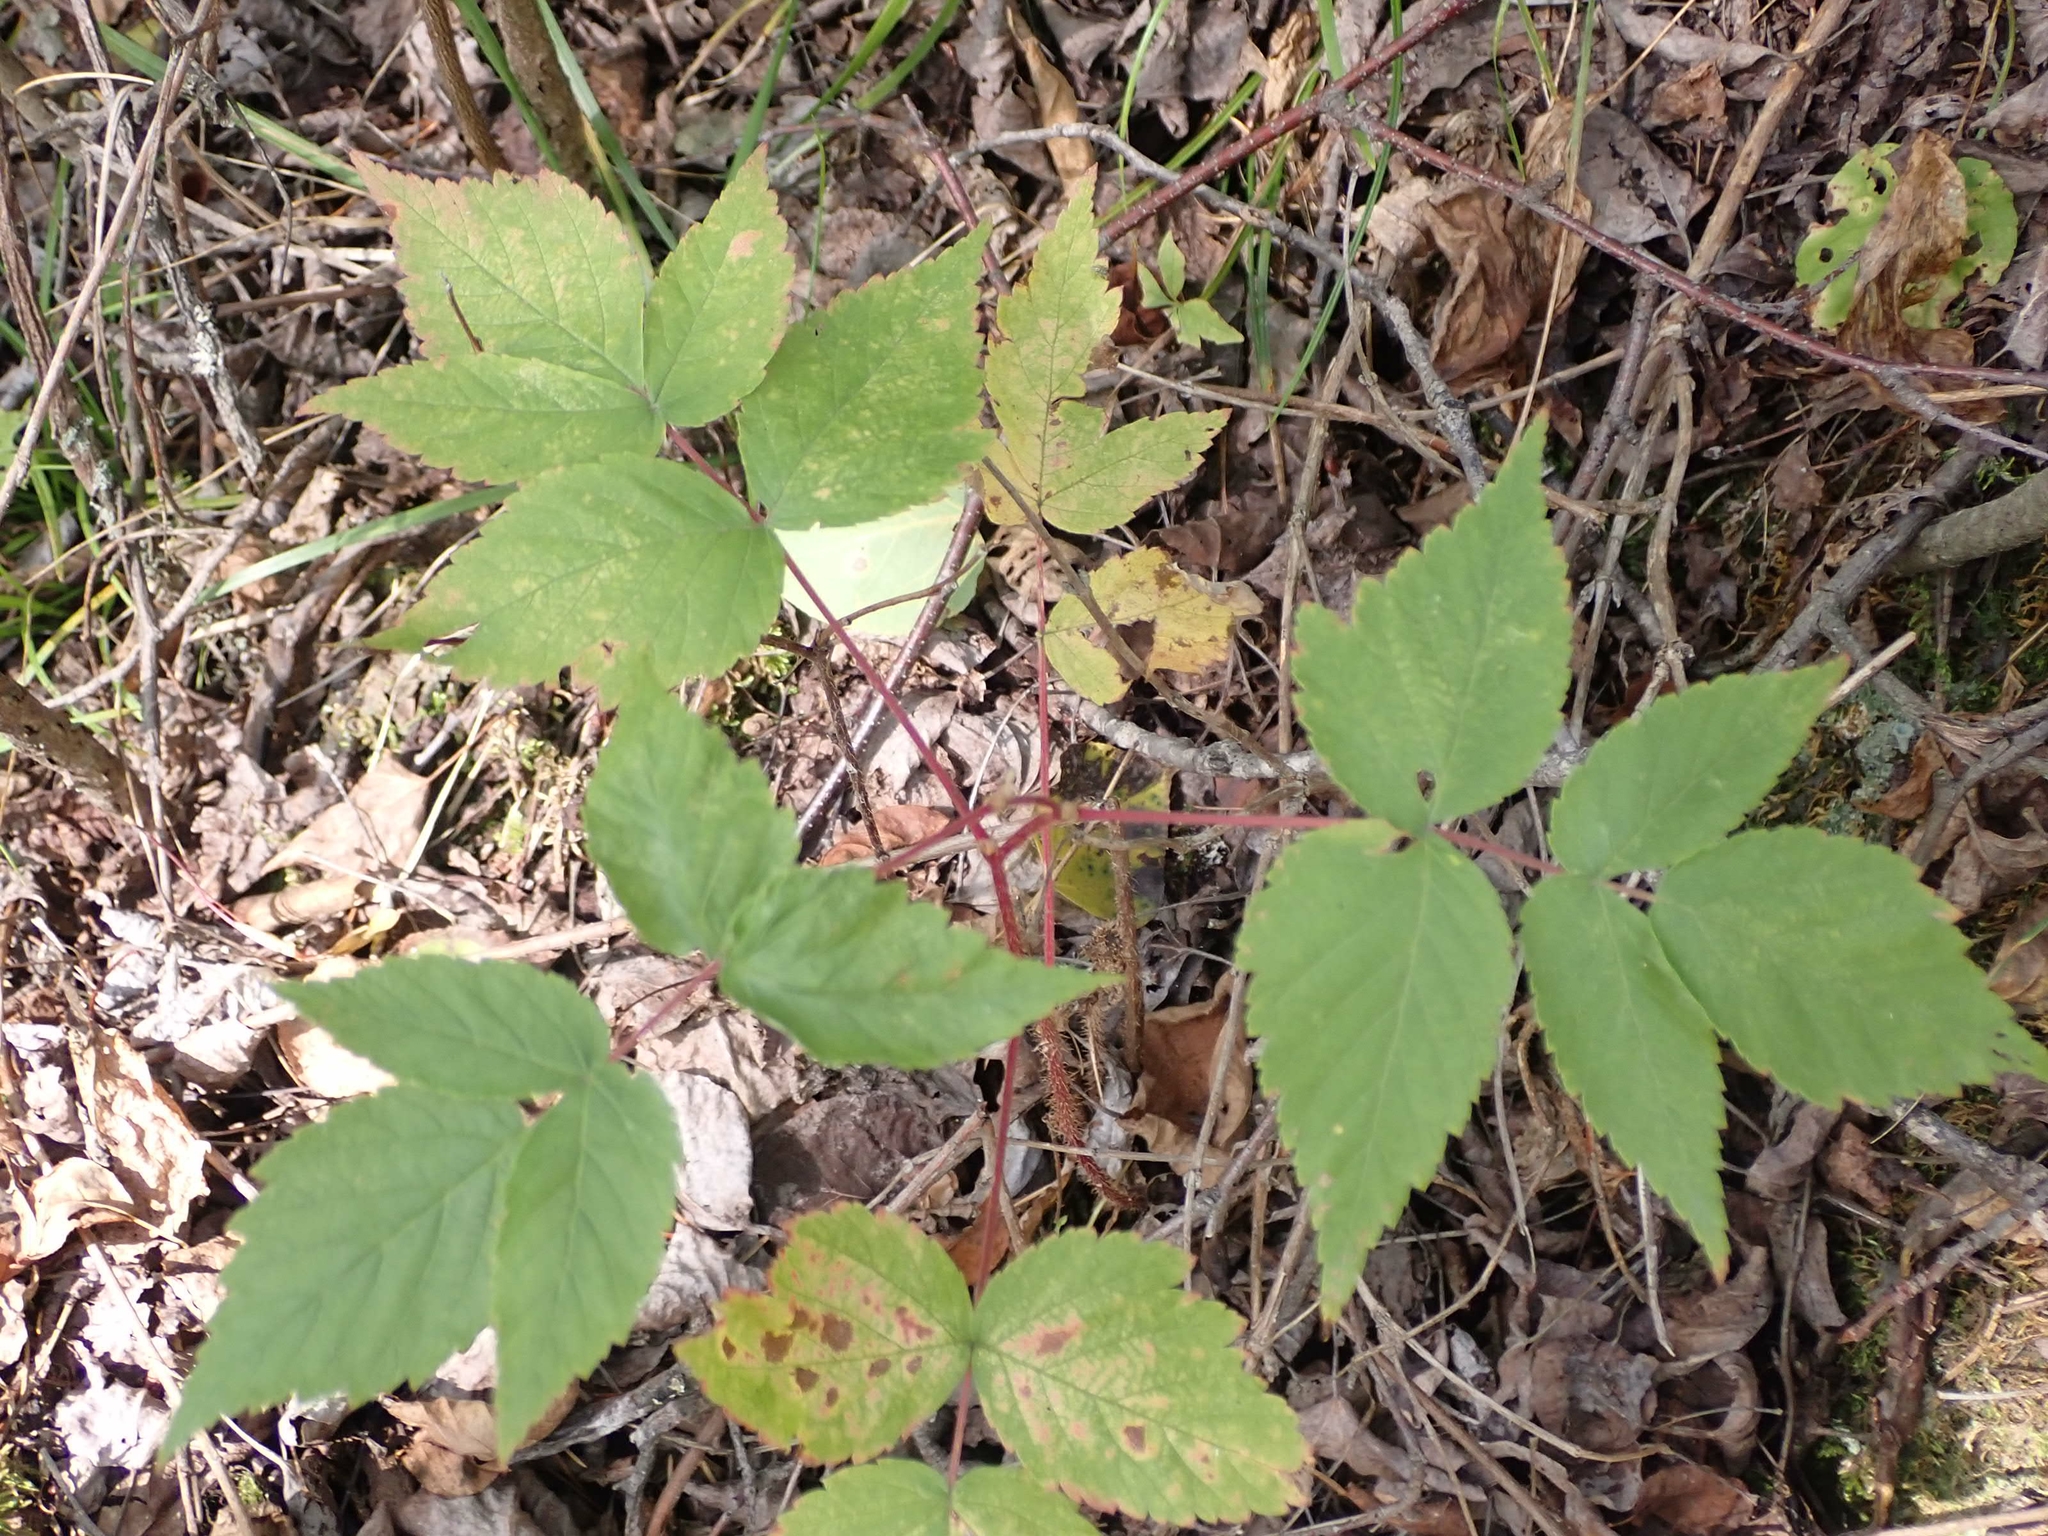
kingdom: Plantae
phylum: Tracheophyta
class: Magnoliopsida
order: Rosales
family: Rosaceae
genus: Rubus
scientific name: Rubus idaeus
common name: Raspberry
